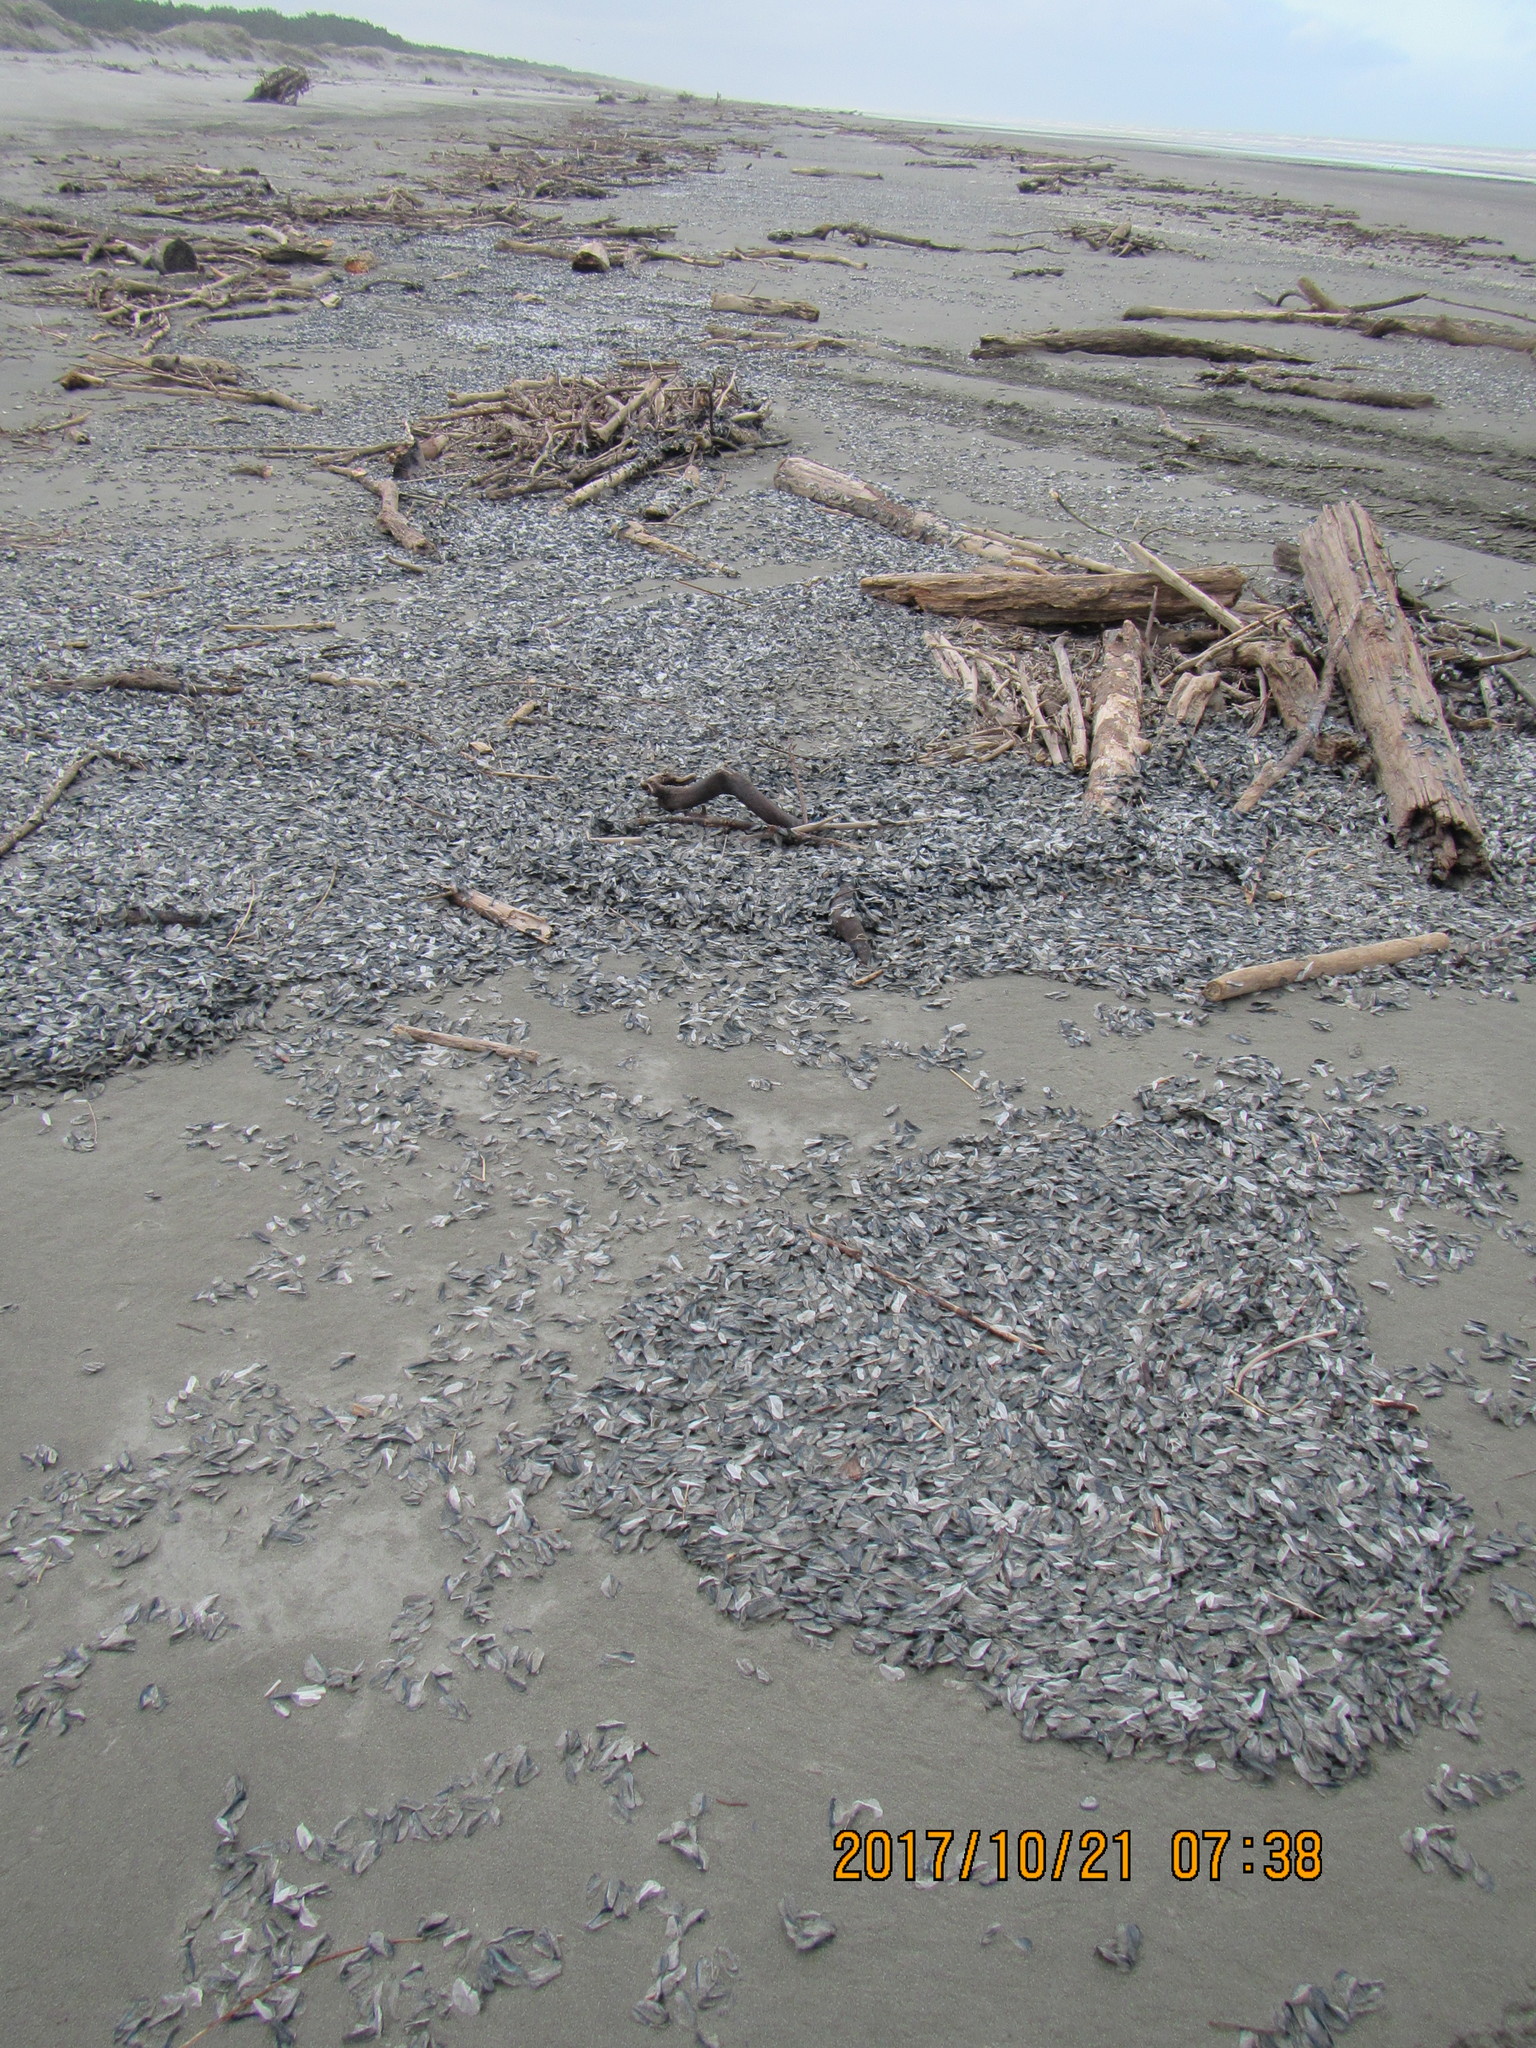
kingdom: Animalia
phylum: Cnidaria
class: Hydrozoa
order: Anthoathecata
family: Porpitidae
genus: Velella
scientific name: Velella velella
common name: By-the-wind-sailor
